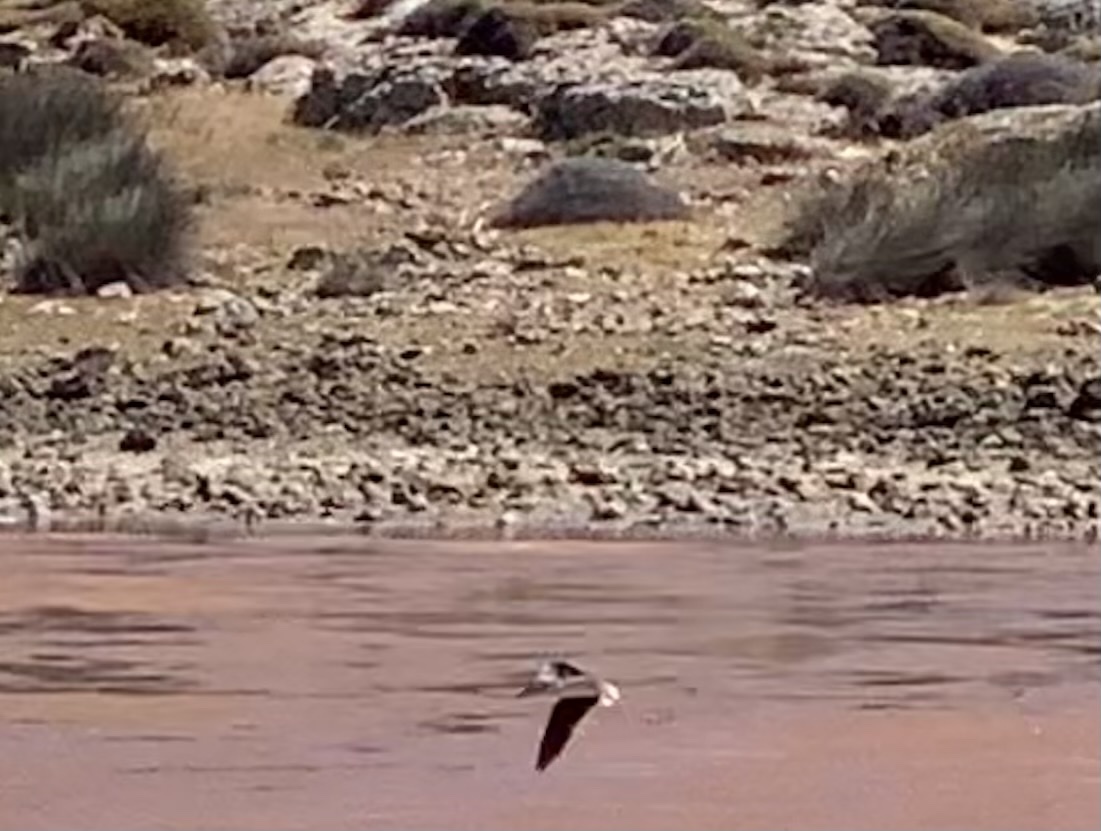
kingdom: Animalia
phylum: Chordata
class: Aves
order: Charadriiformes
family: Recurvirostridae
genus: Himantopus
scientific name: Himantopus himantopus
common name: Black-winged stilt
